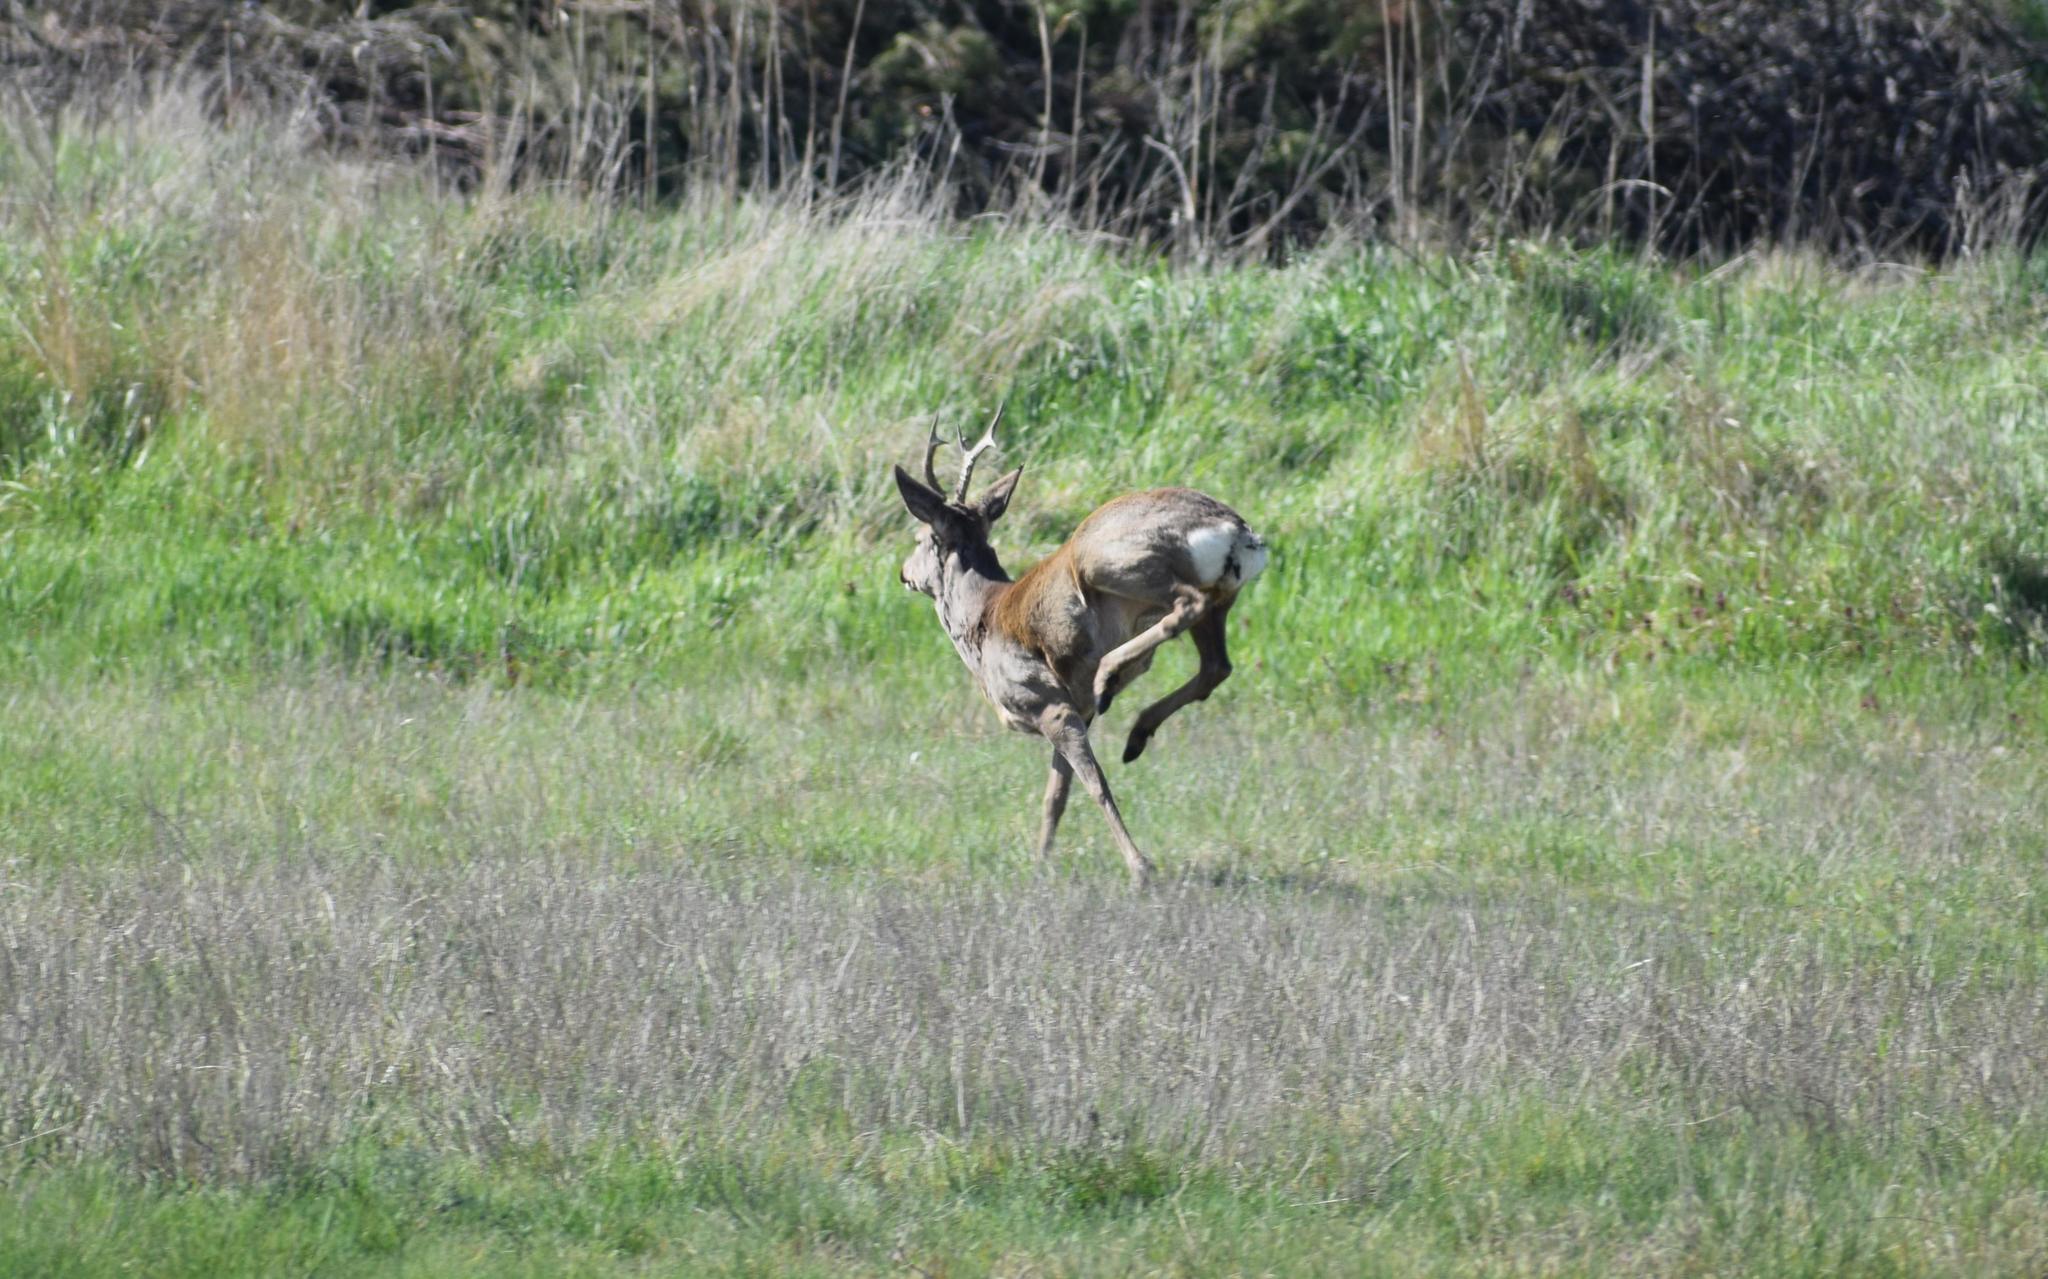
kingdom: Animalia
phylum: Chordata
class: Mammalia
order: Artiodactyla
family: Cervidae
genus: Capreolus
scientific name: Capreolus capreolus
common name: Western roe deer
